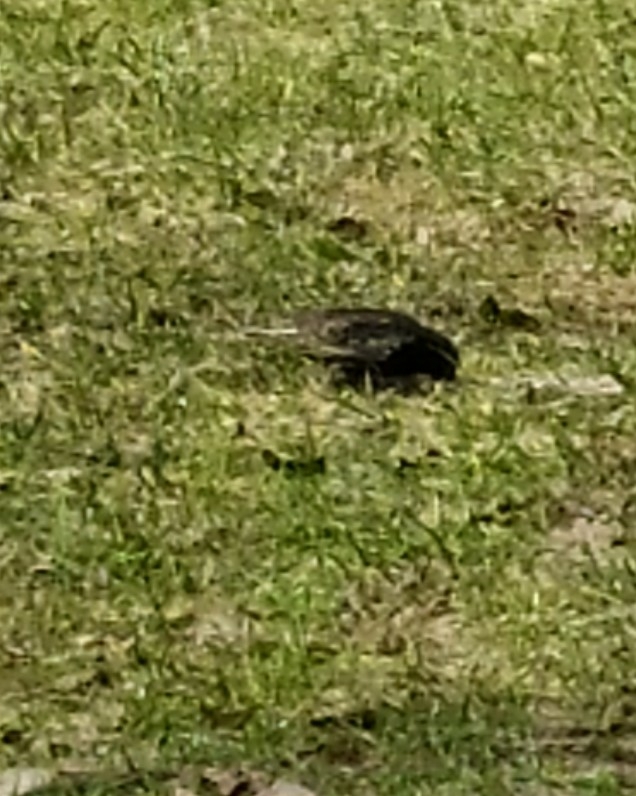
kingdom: Animalia
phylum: Chordata
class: Aves
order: Passeriformes
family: Sturnidae
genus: Sturnus
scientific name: Sturnus vulgaris
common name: Common starling
